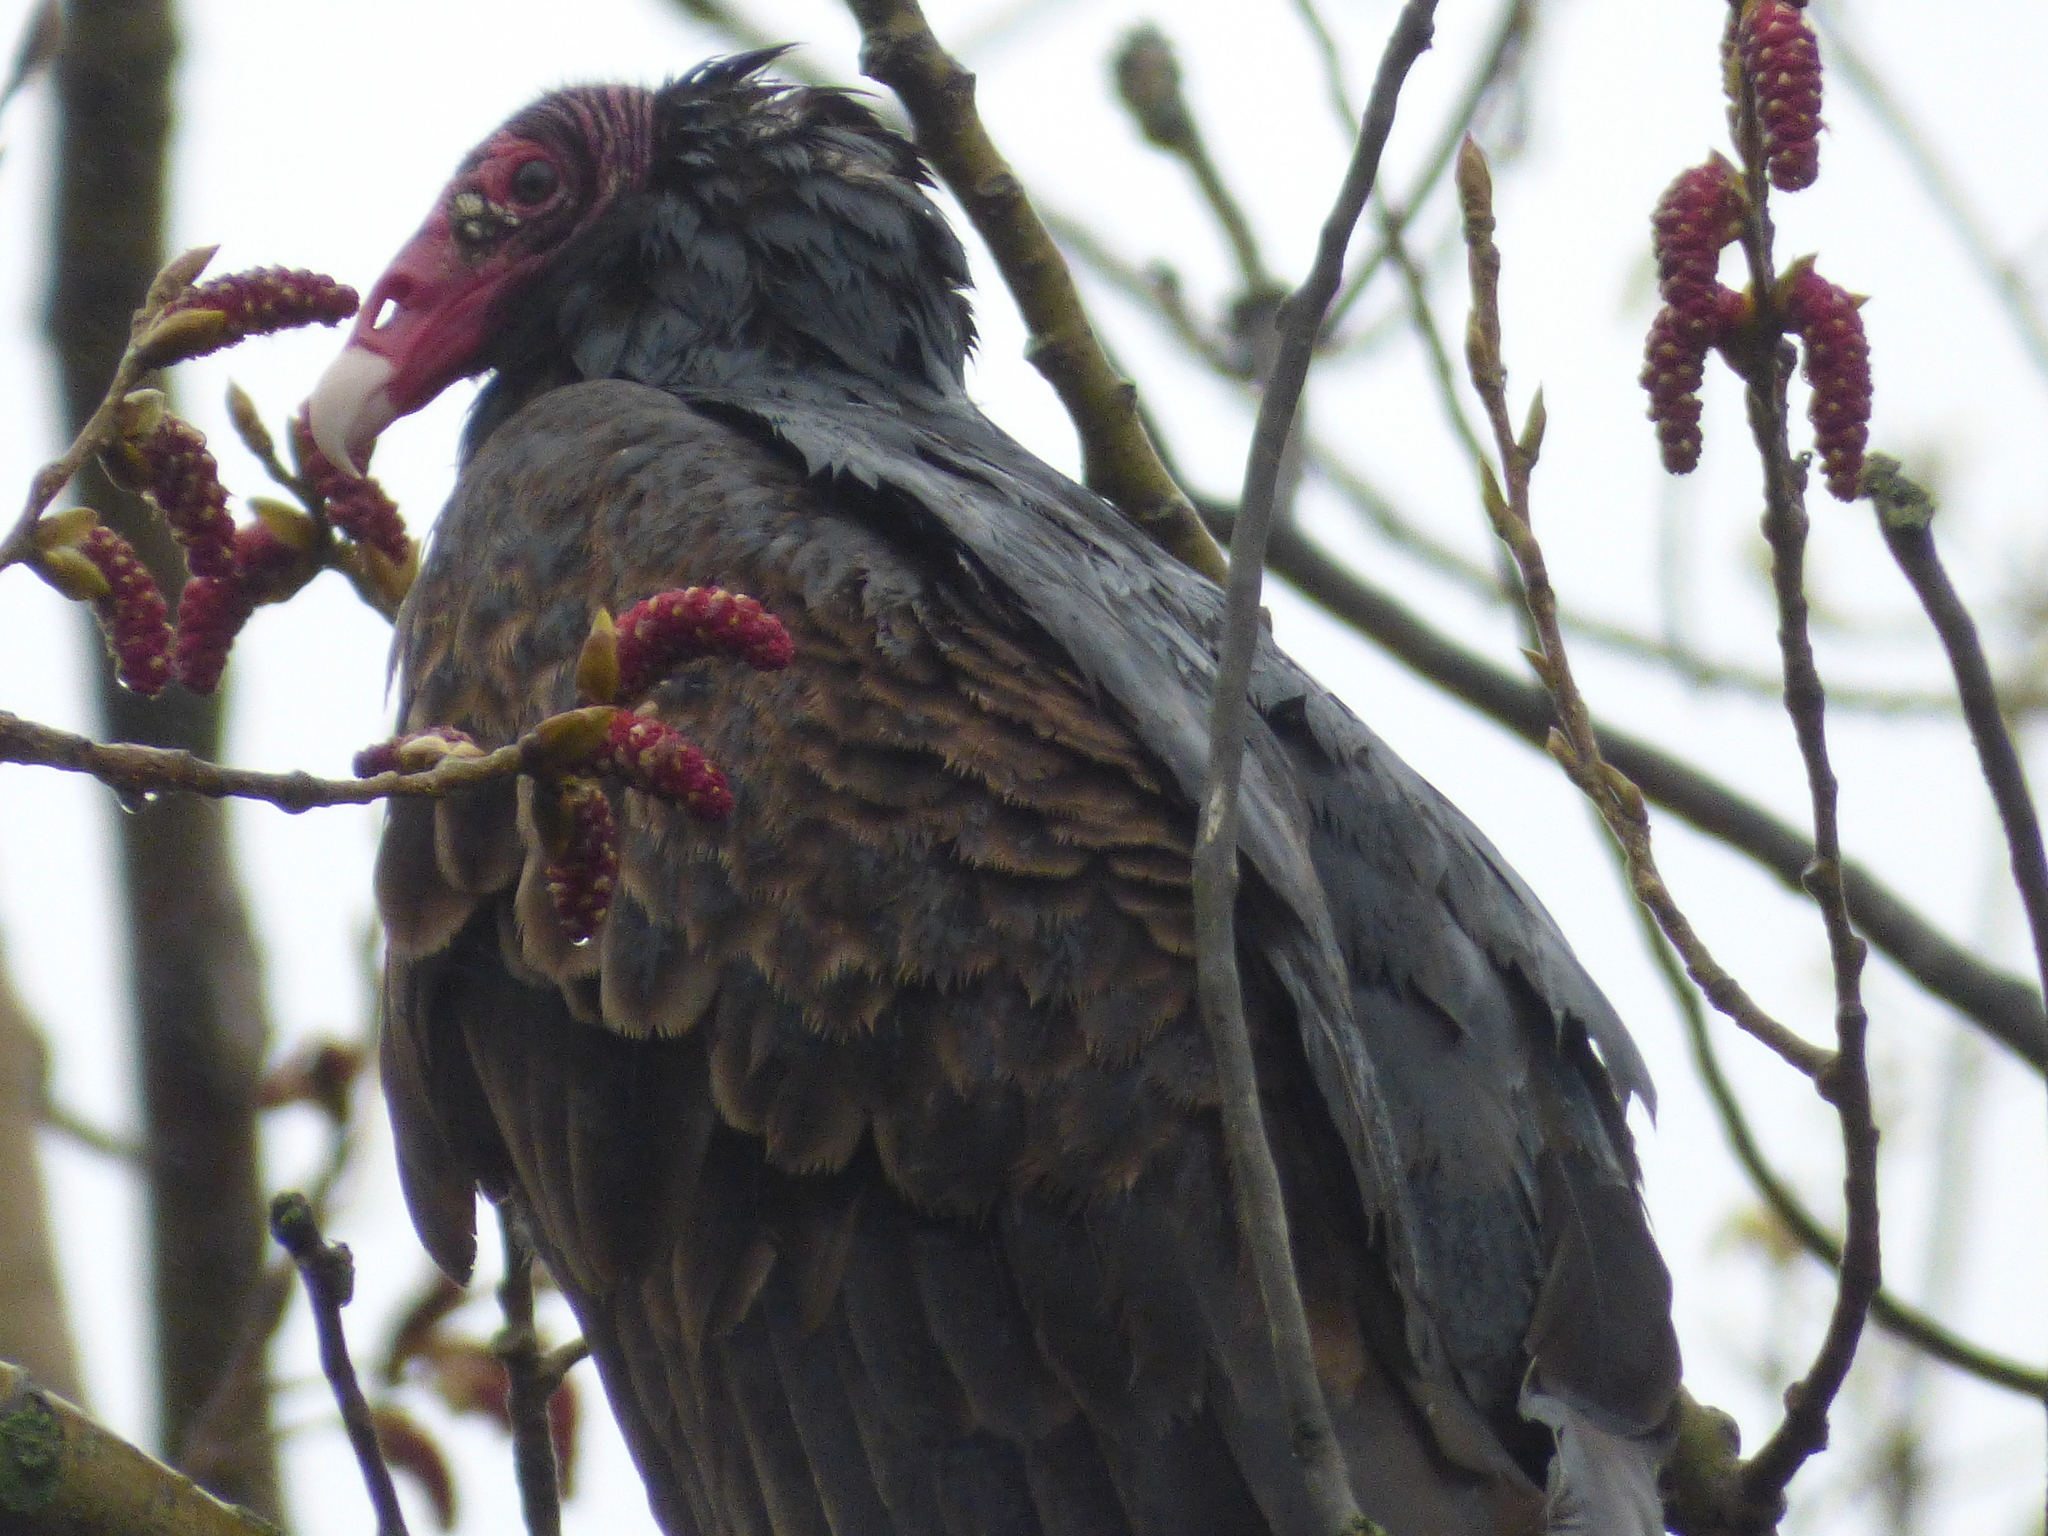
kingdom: Animalia
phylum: Chordata
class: Aves
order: Accipitriformes
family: Cathartidae
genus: Cathartes
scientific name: Cathartes aura
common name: Turkey vulture
